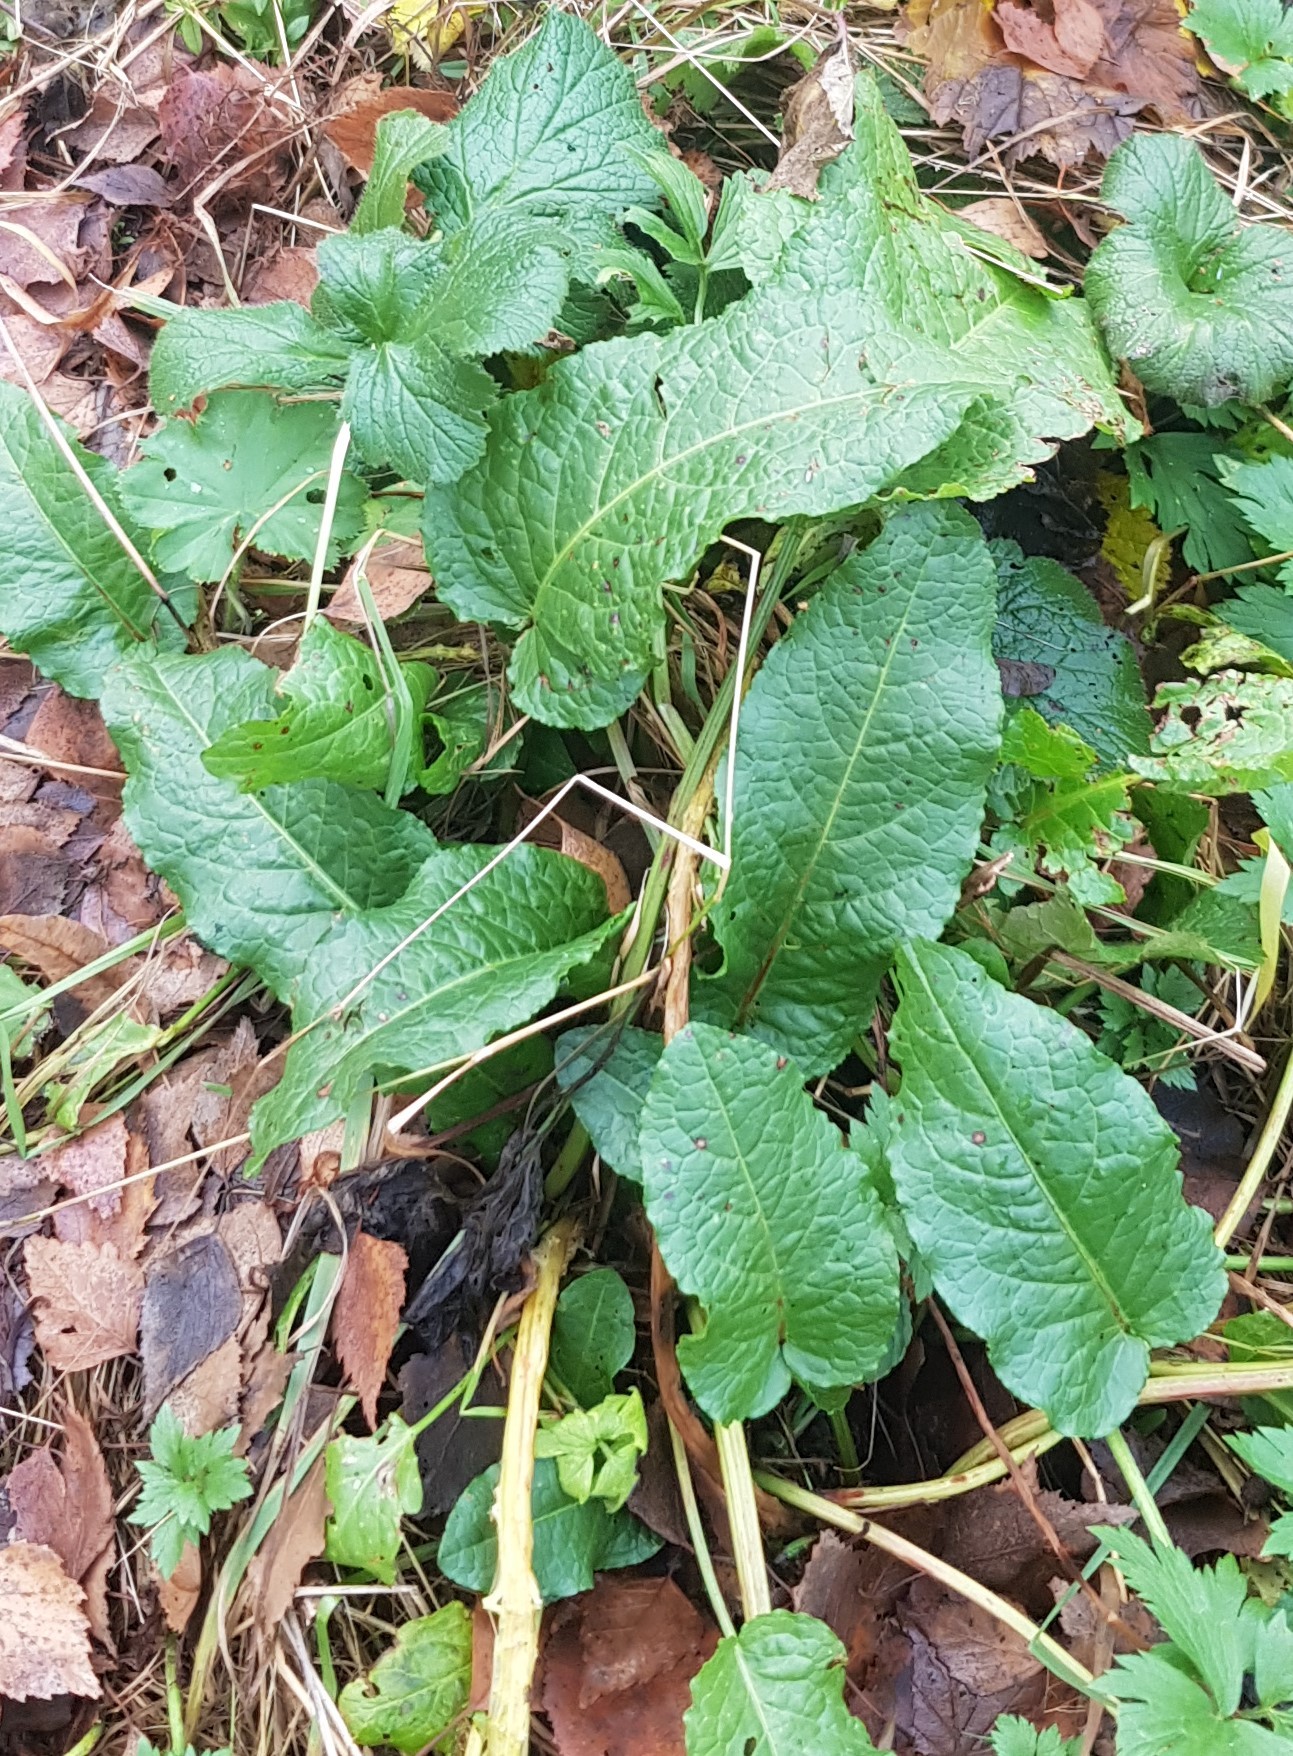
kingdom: Plantae
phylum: Tracheophyta
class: Magnoliopsida
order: Caryophyllales
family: Polygonaceae
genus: Rumex
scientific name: Rumex obtusifolius
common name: Bitter dock
